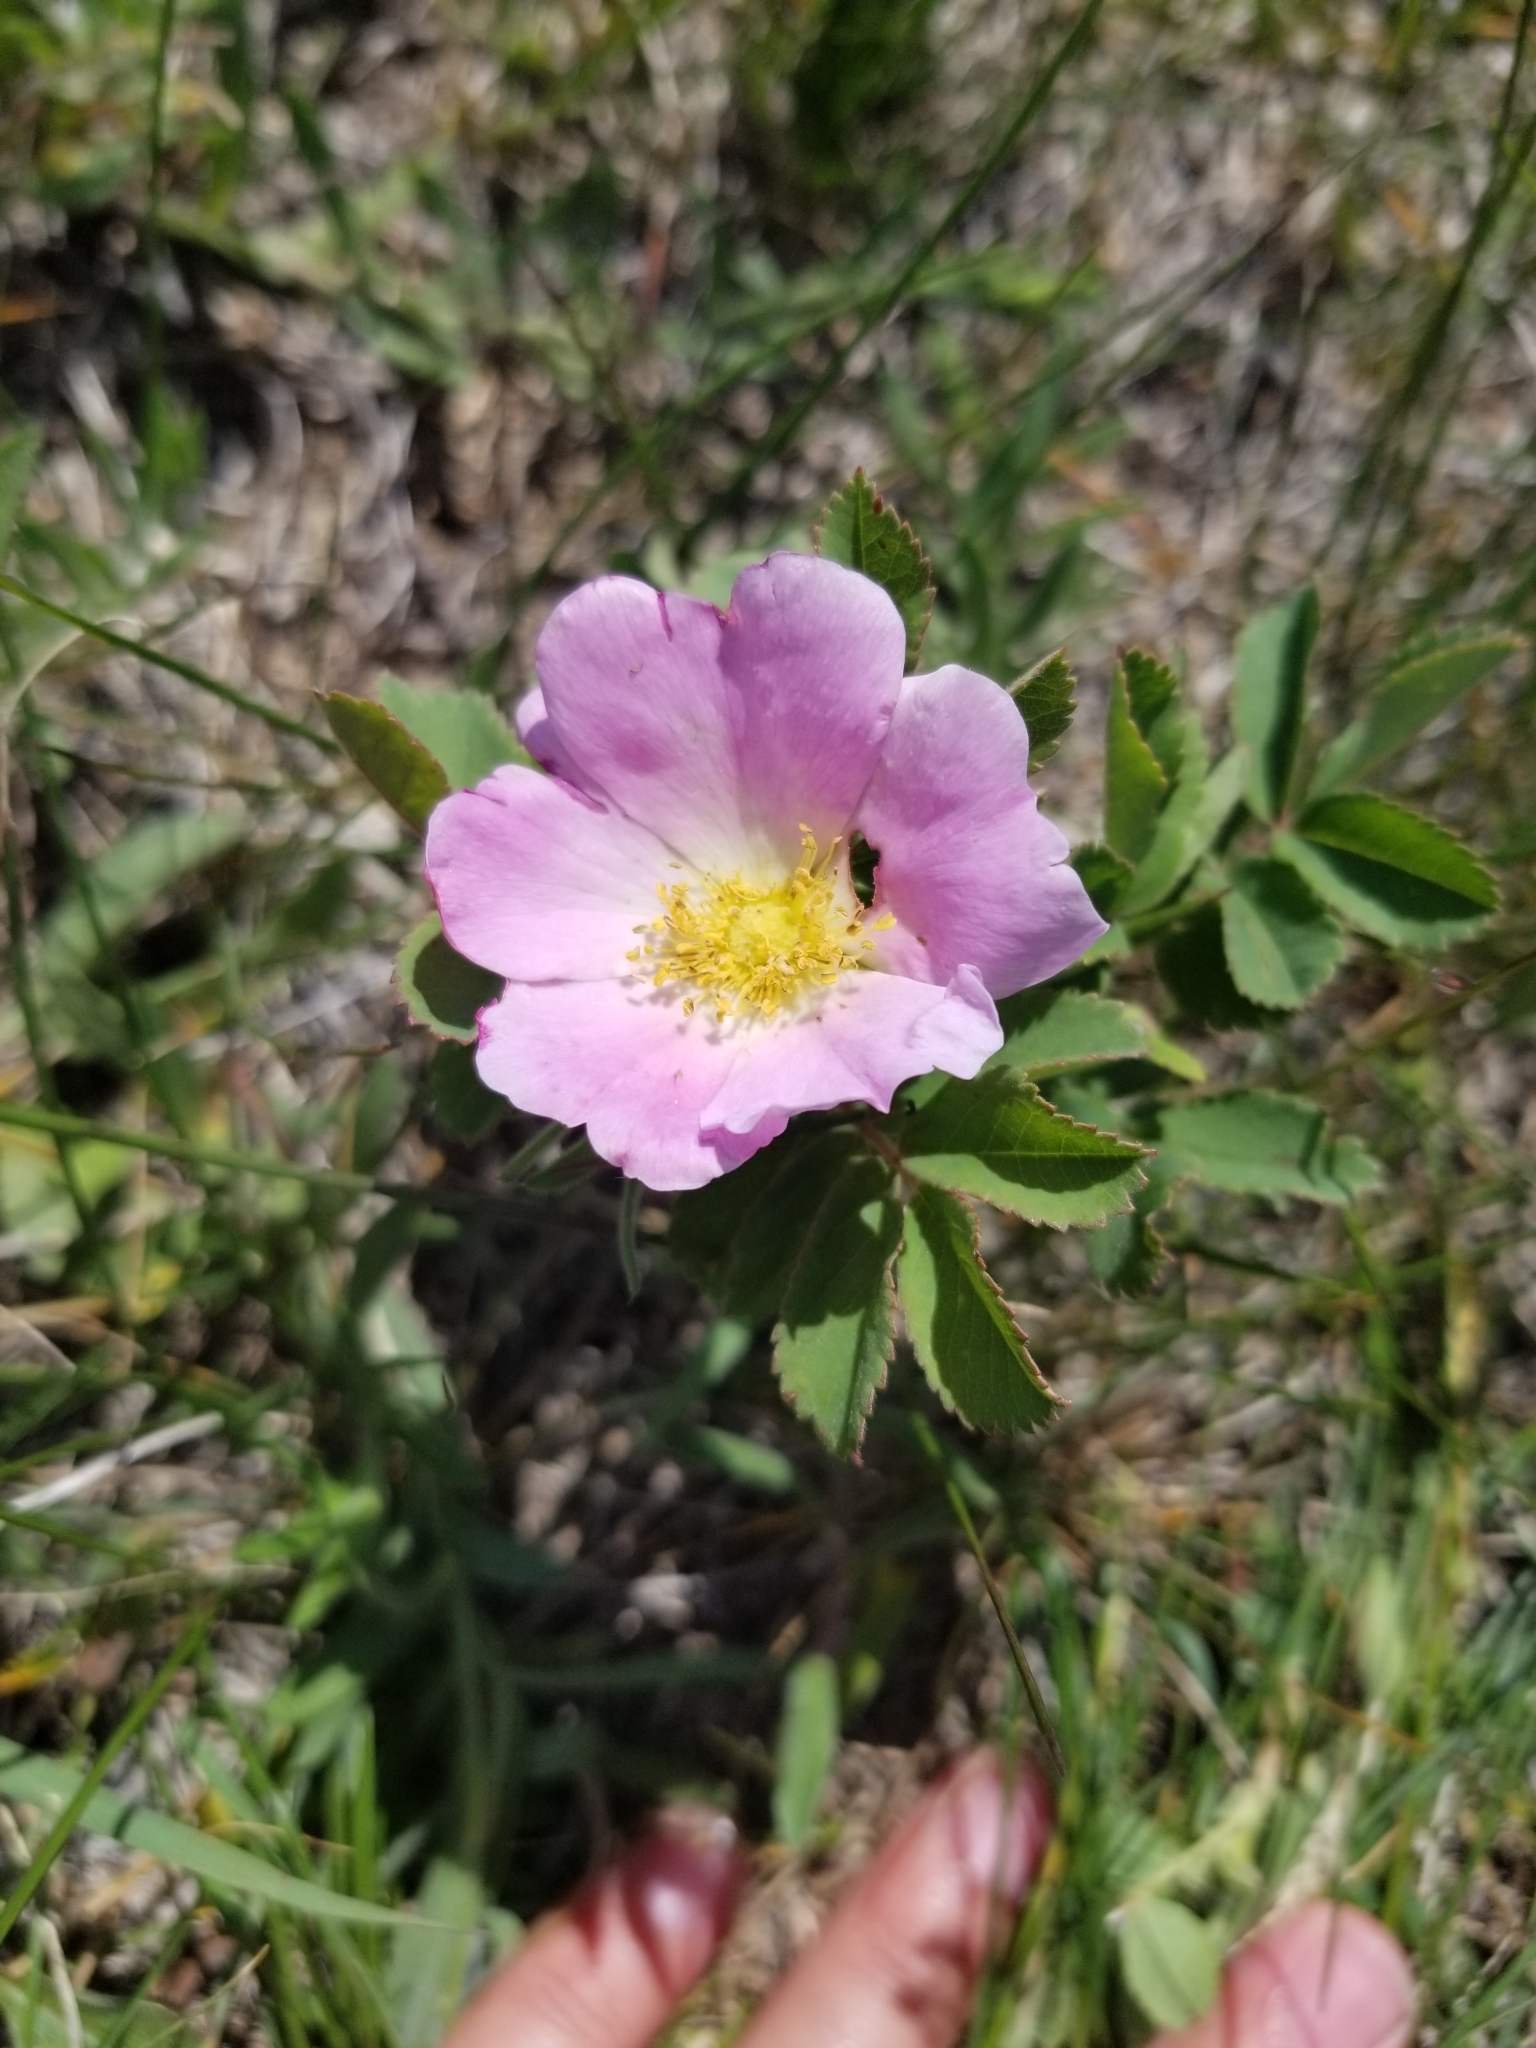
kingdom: Plantae
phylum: Tracheophyta
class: Magnoliopsida
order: Rosales
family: Rosaceae
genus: Rosa
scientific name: Rosa arkansana
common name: Prairie rose
